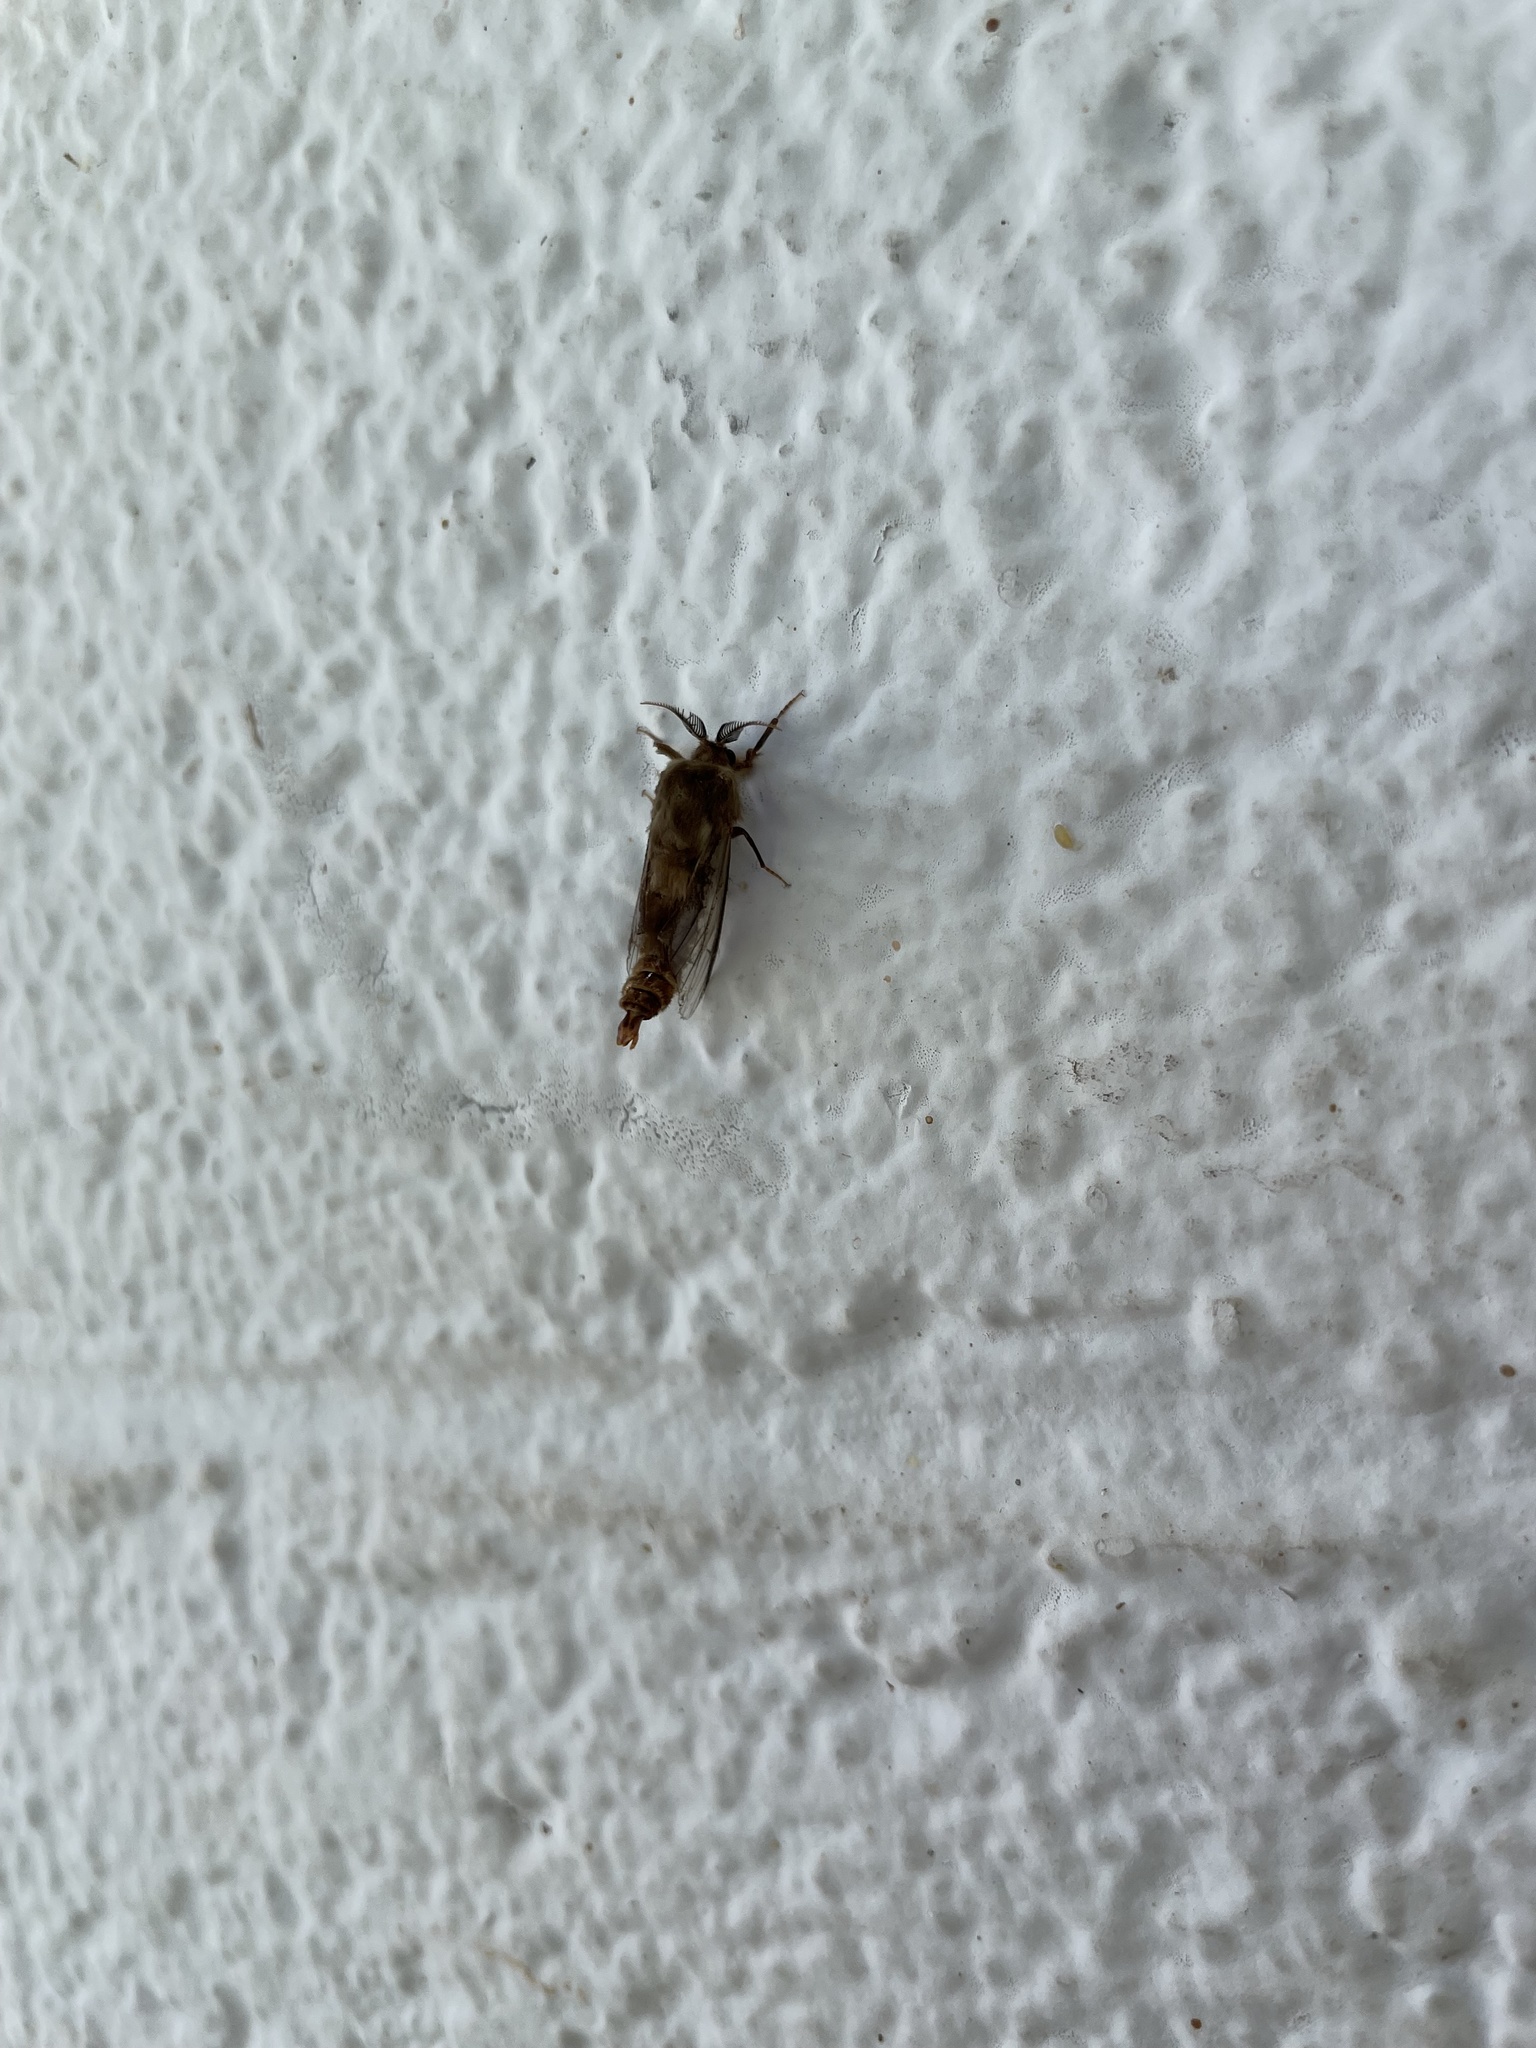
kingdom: Animalia
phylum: Arthropoda
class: Insecta
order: Lepidoptera
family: Psychidae
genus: Thyridopteryx
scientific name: Thyridopteryx ephemeraeformis
